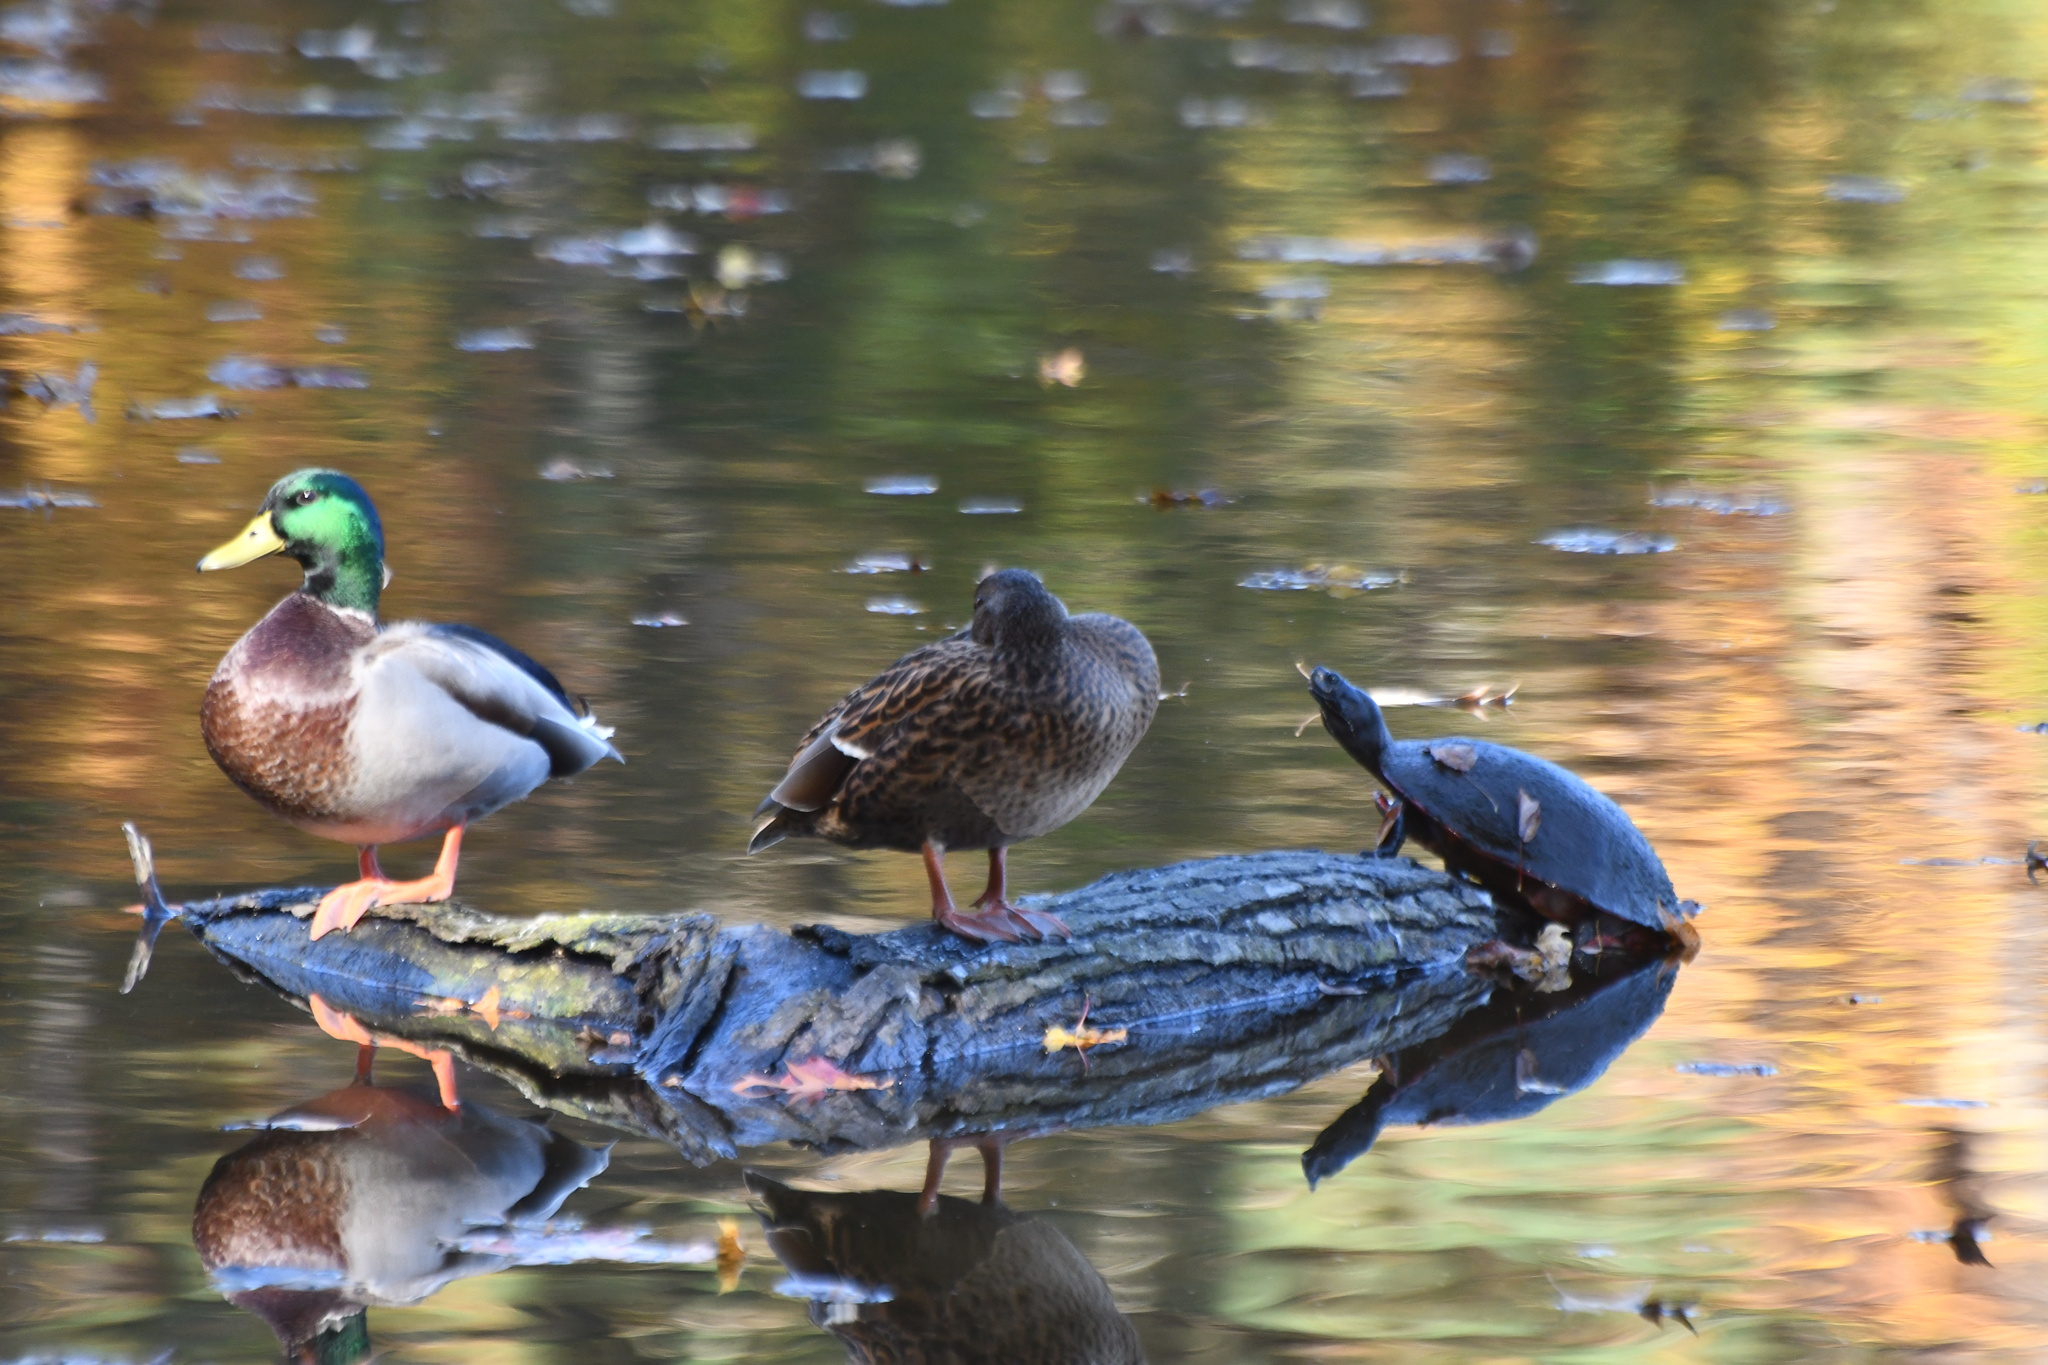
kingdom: Animalia
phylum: Chordata
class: Testudines
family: Emydidae
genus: Pseudemys
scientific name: Pseudemys rubriventris
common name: American red-bellied turtle
